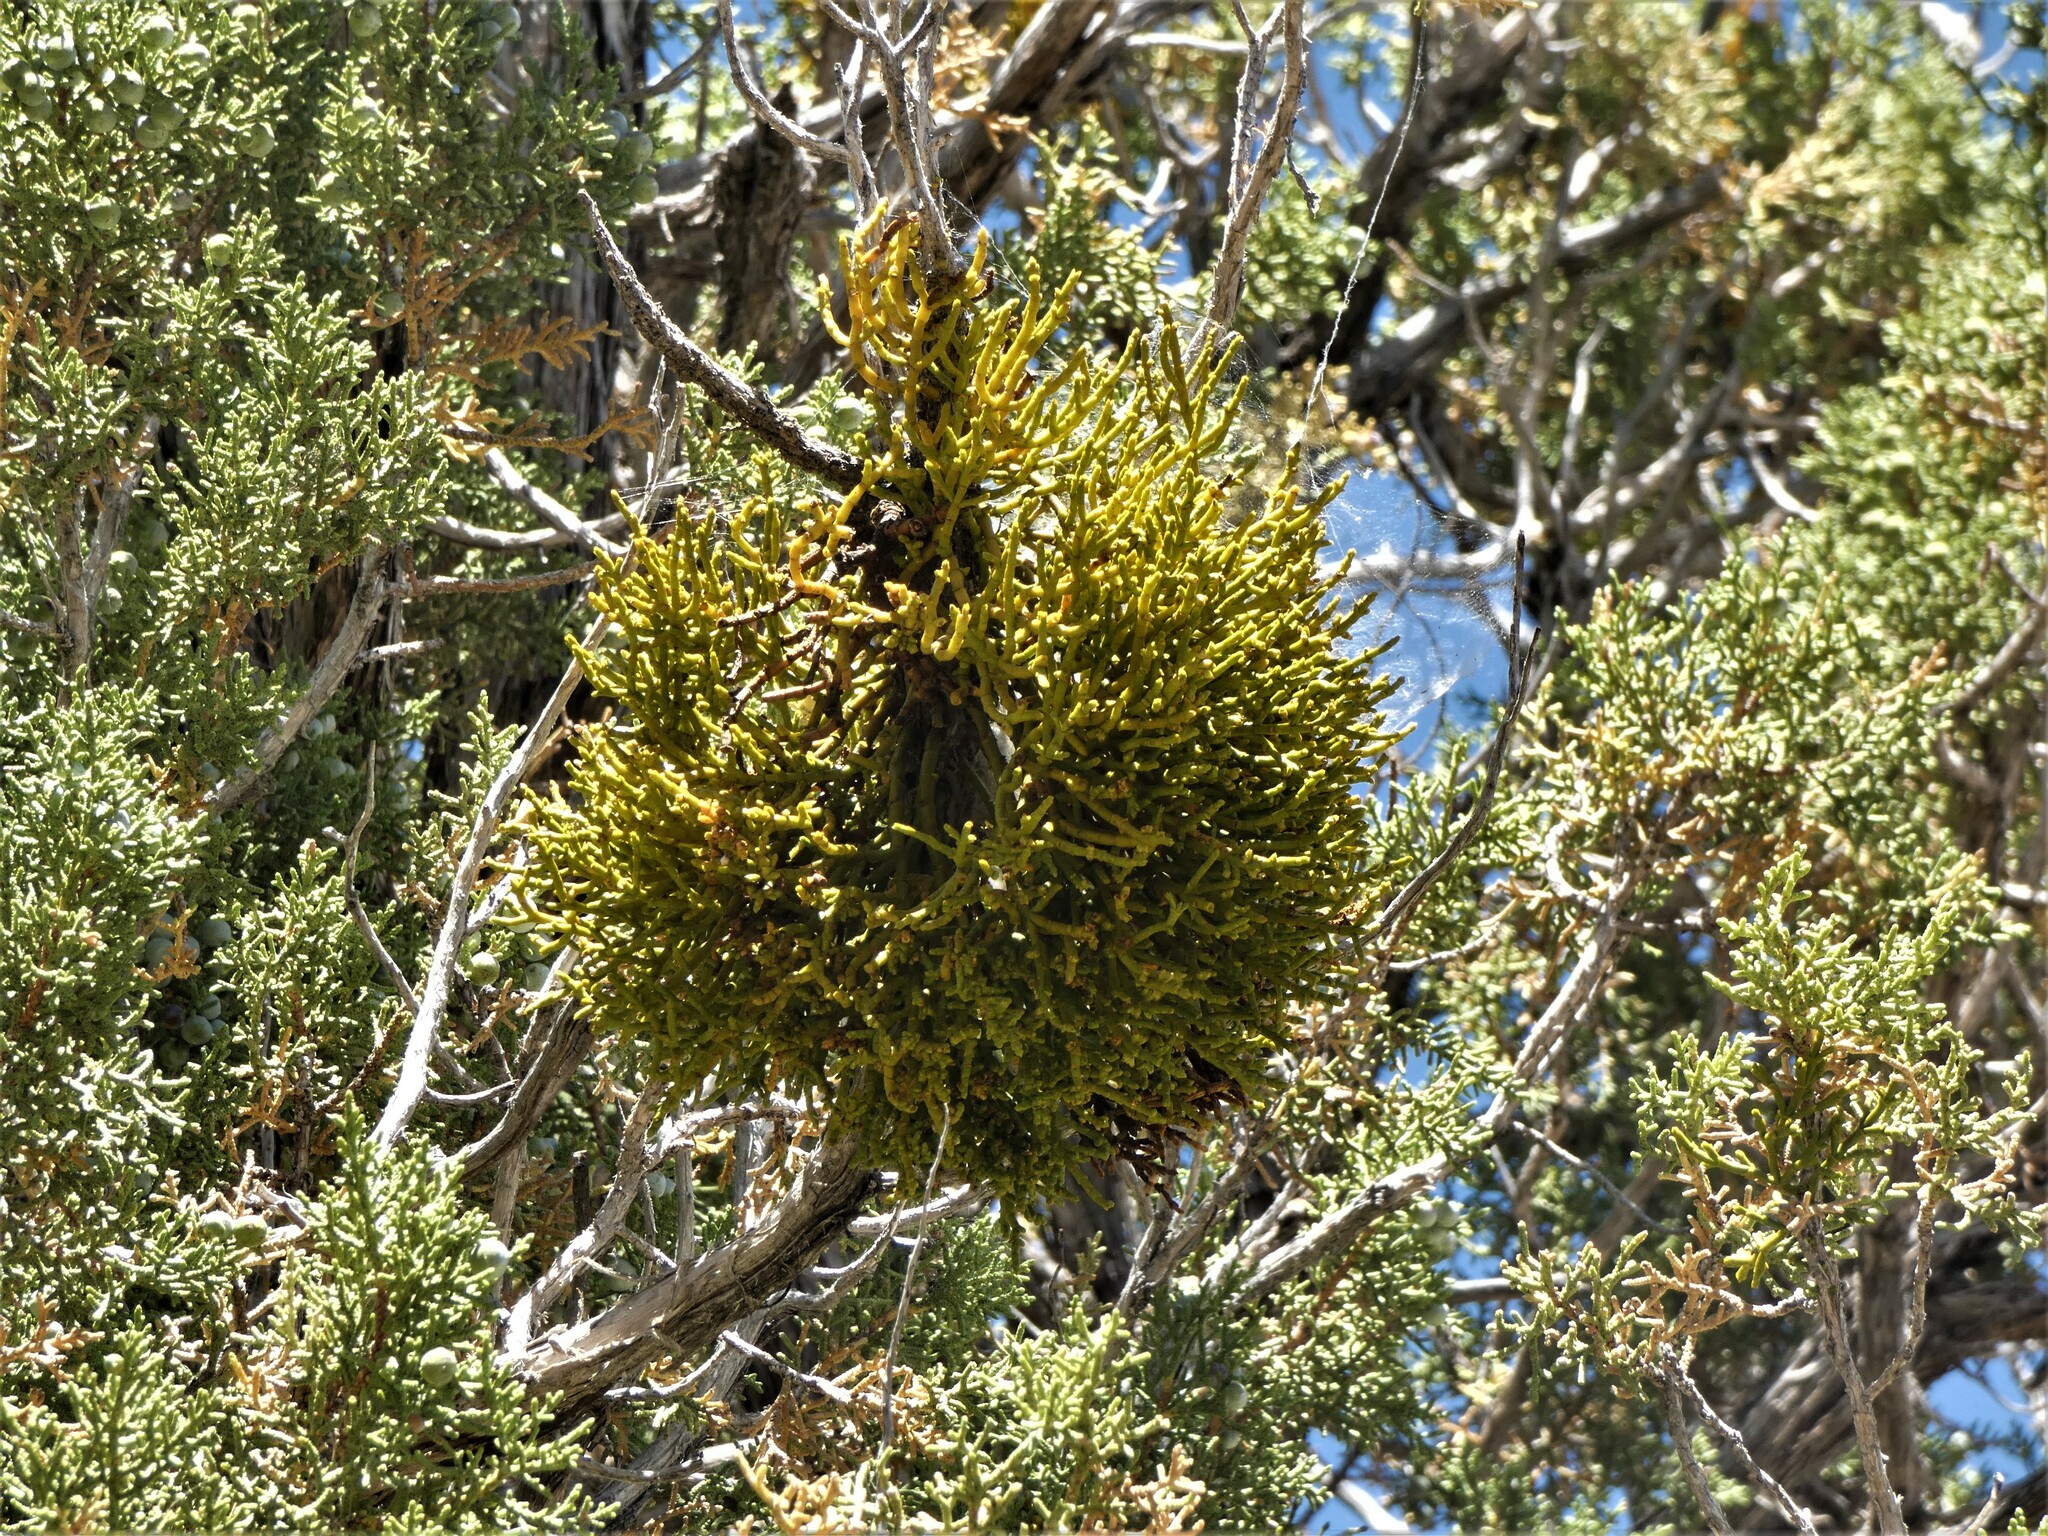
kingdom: Plantae
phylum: Tracheophyta
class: Magnoliopsida
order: Santalales
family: Viscaceae
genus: Phoradendron
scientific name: Phoradendron juniperinum
